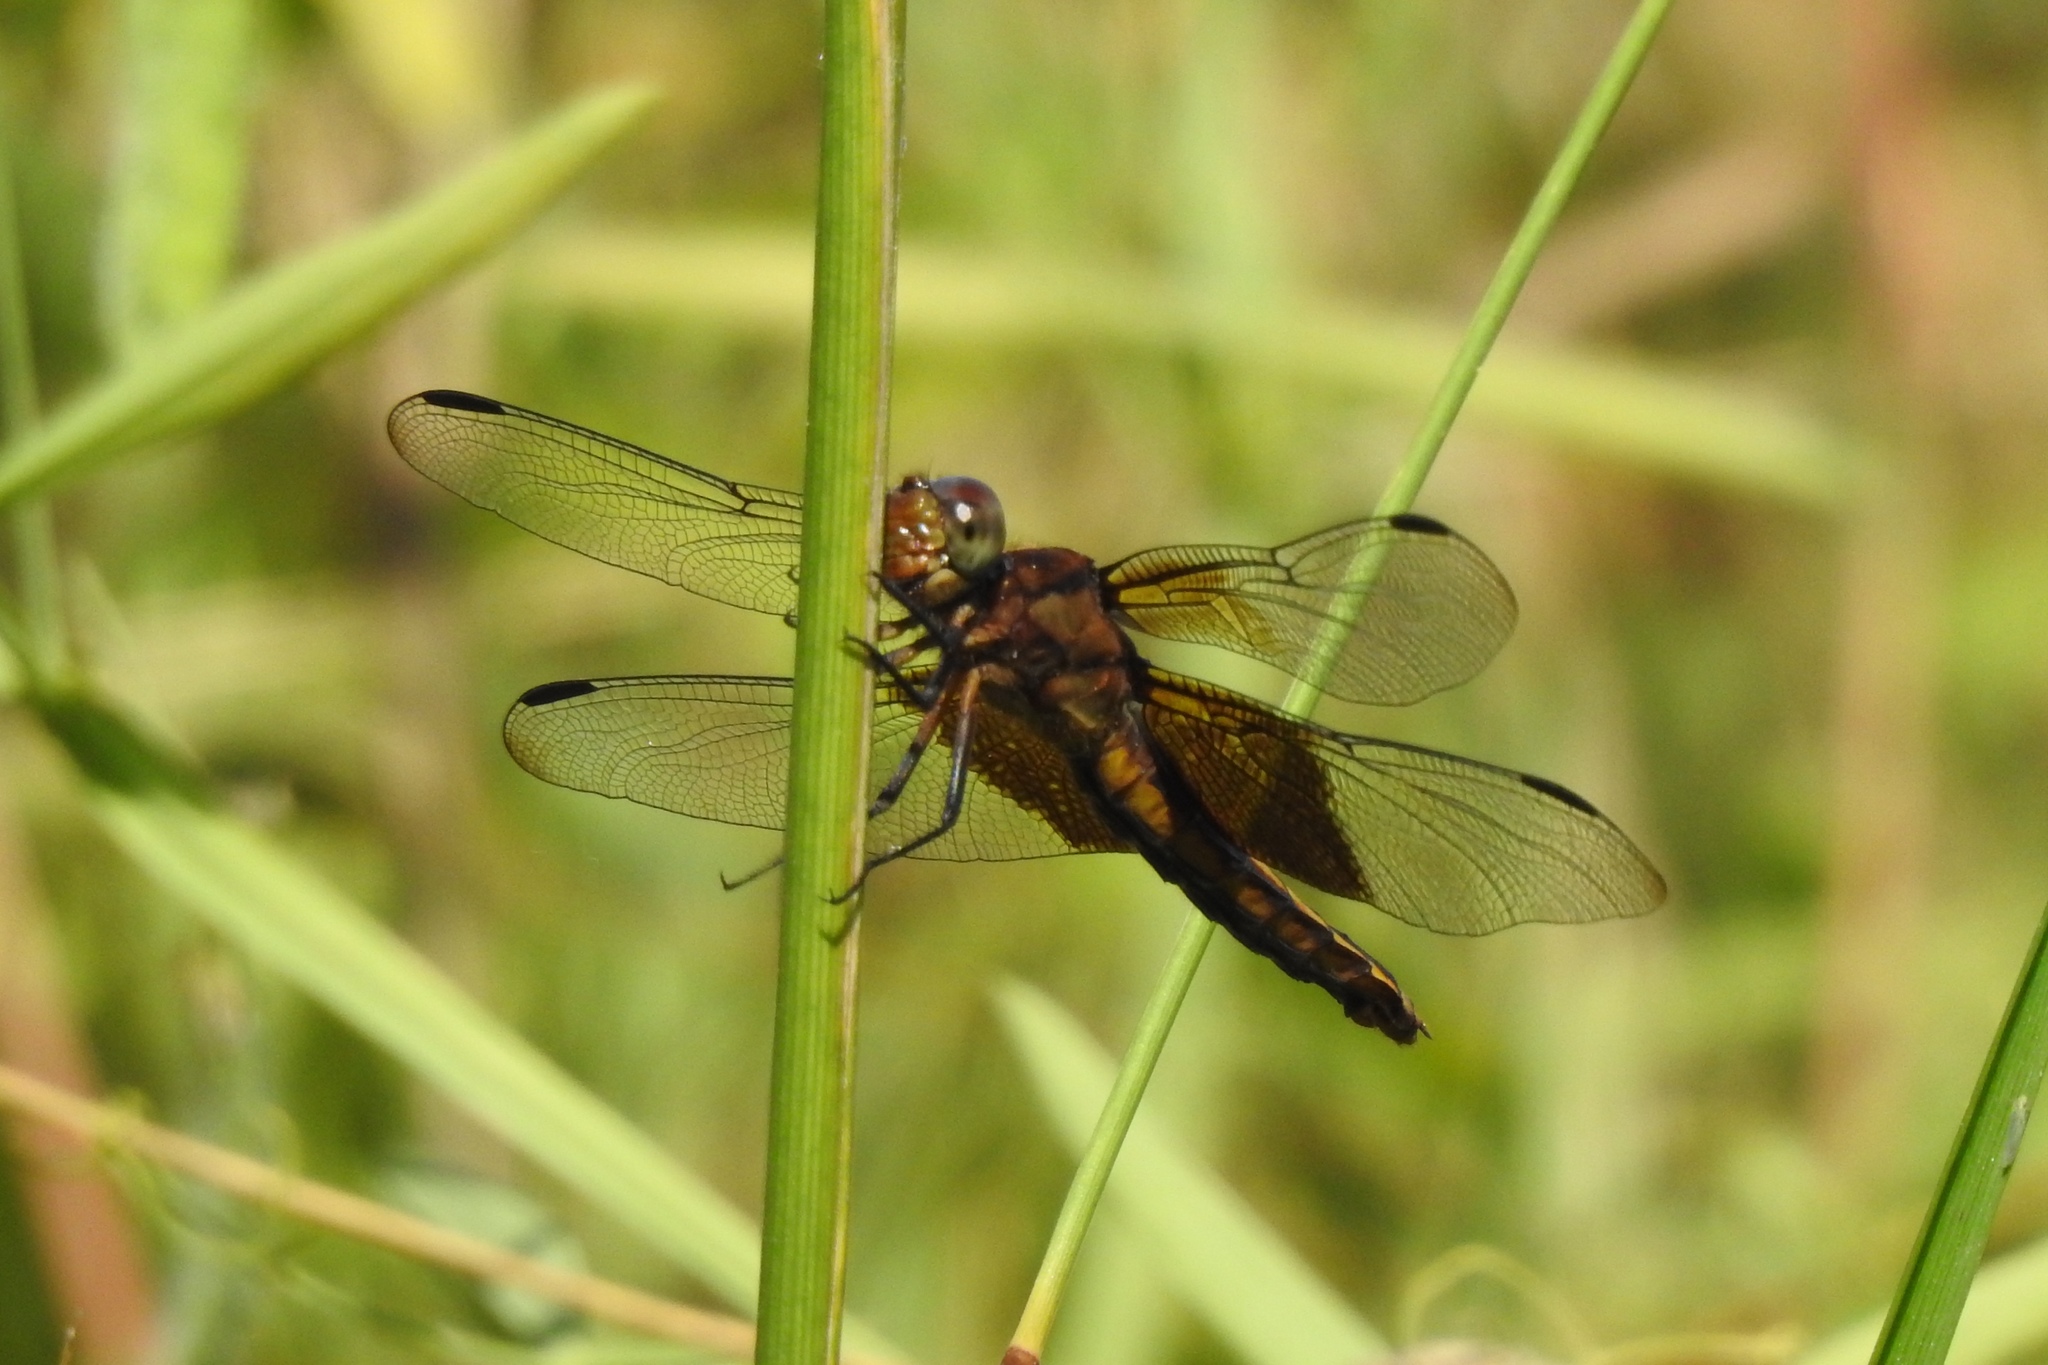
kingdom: Animalia
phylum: Arthropoda
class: Insecta
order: Odonata
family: Libellulidae
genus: Libellula
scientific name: Libellula luctuosa
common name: Widow skimmer
